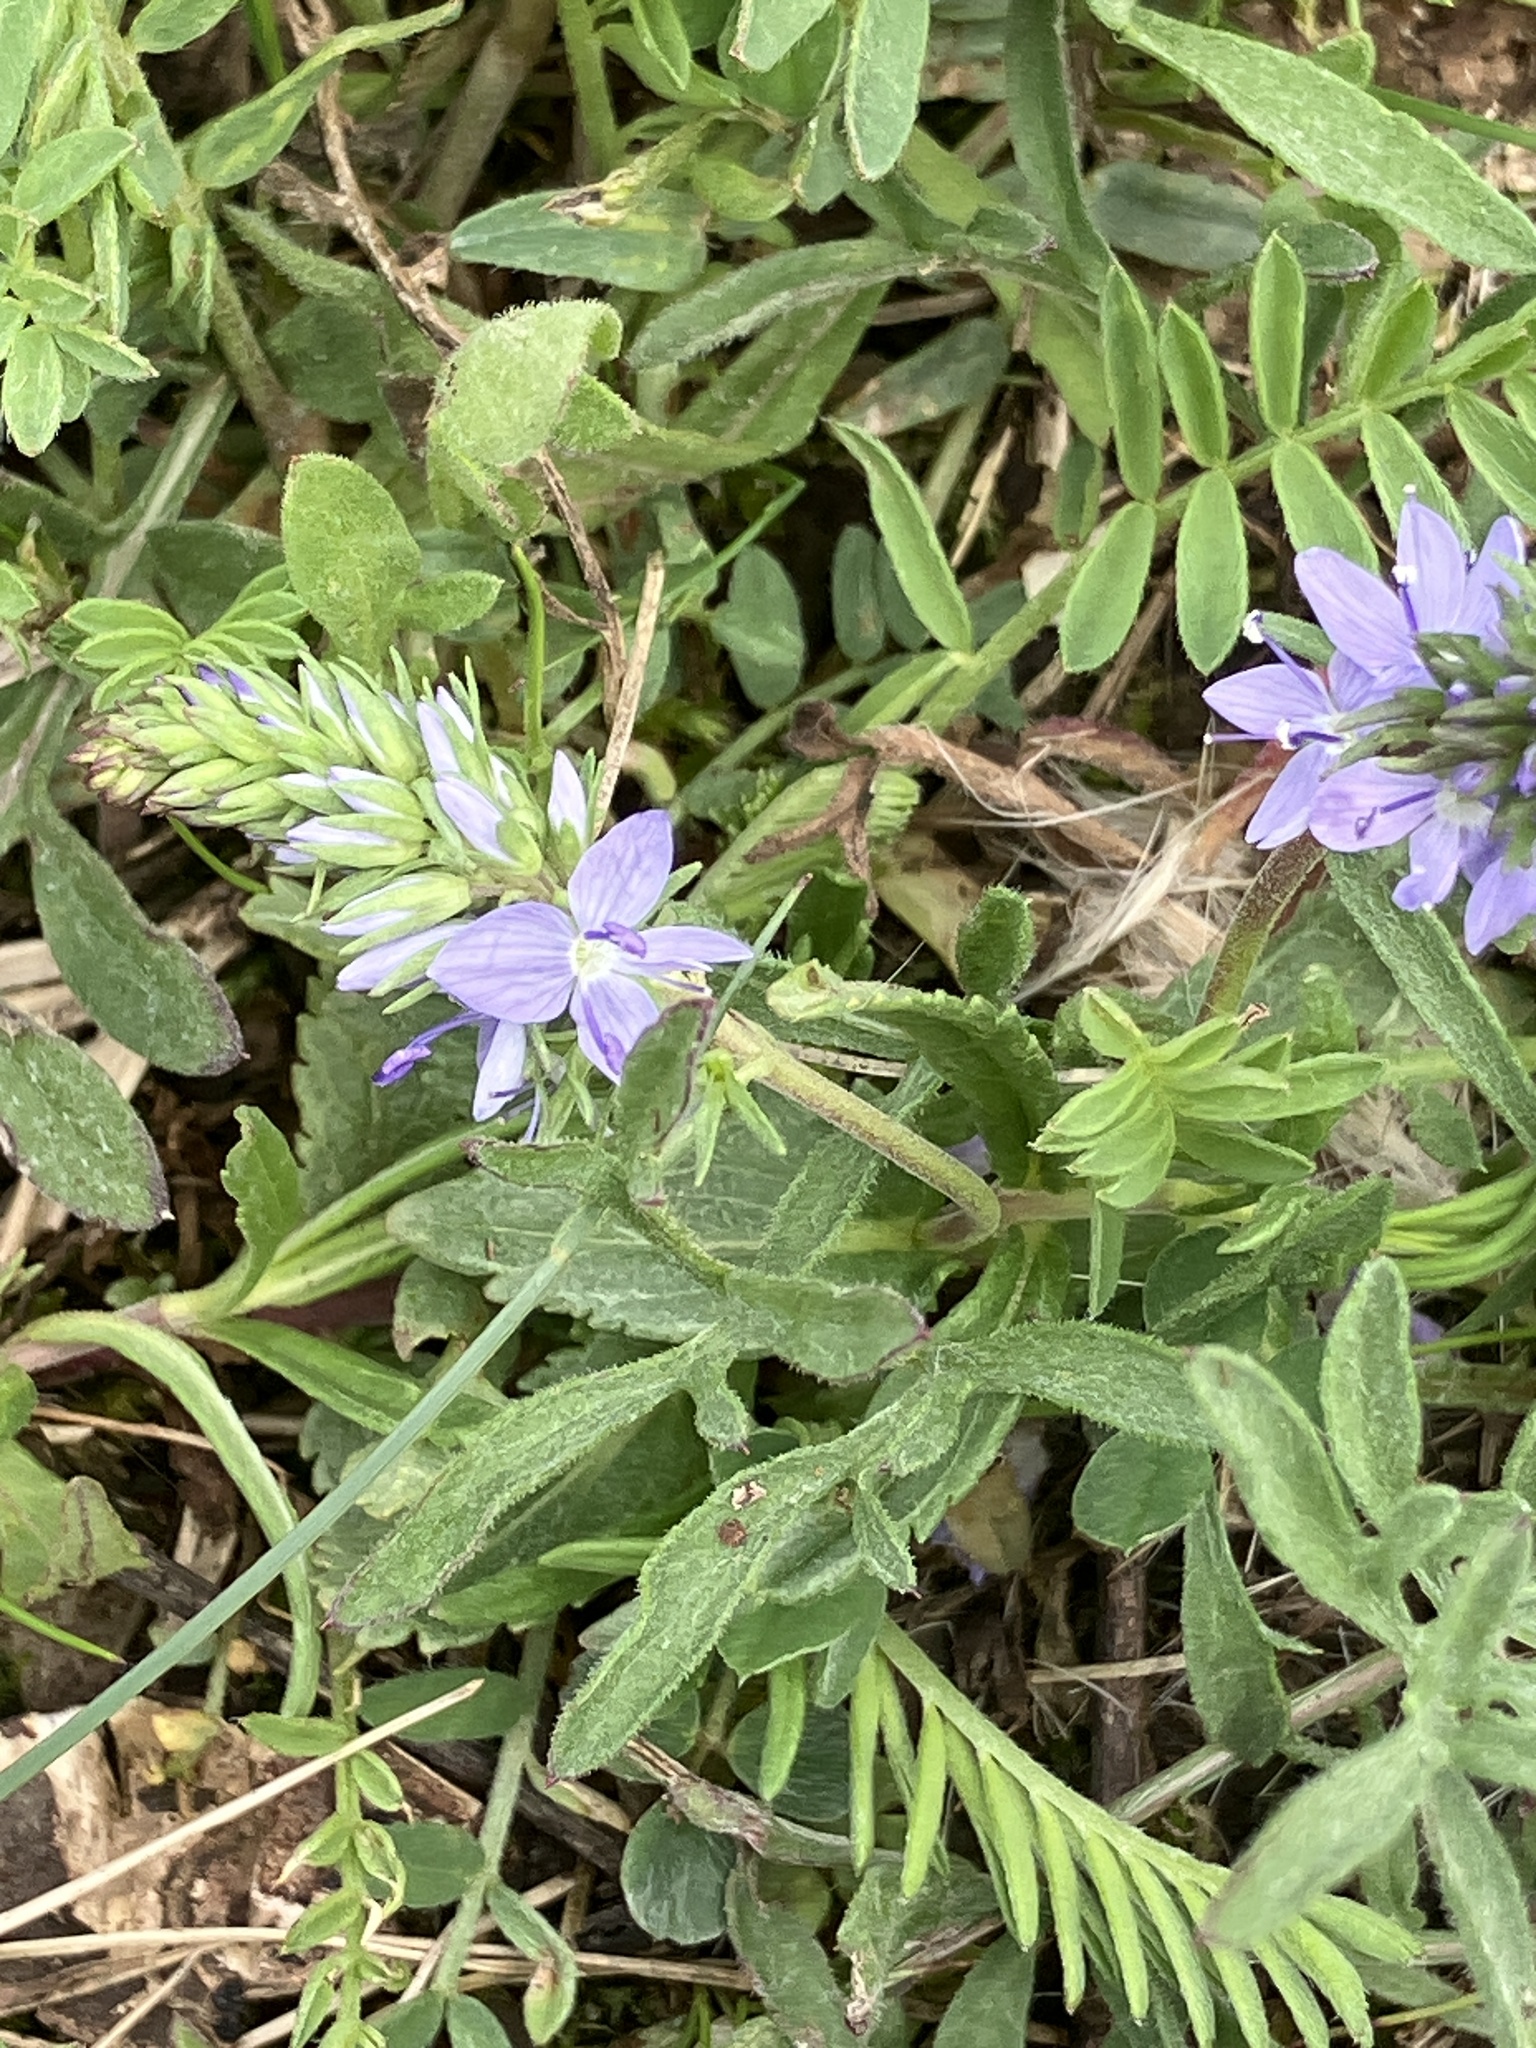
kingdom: Plantae
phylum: Tracheophyta
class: Magnoliopsida
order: Lamiales
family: Plantaginaceae
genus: Veronica
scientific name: Veronica prostrata
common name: Prostrate speedwell
